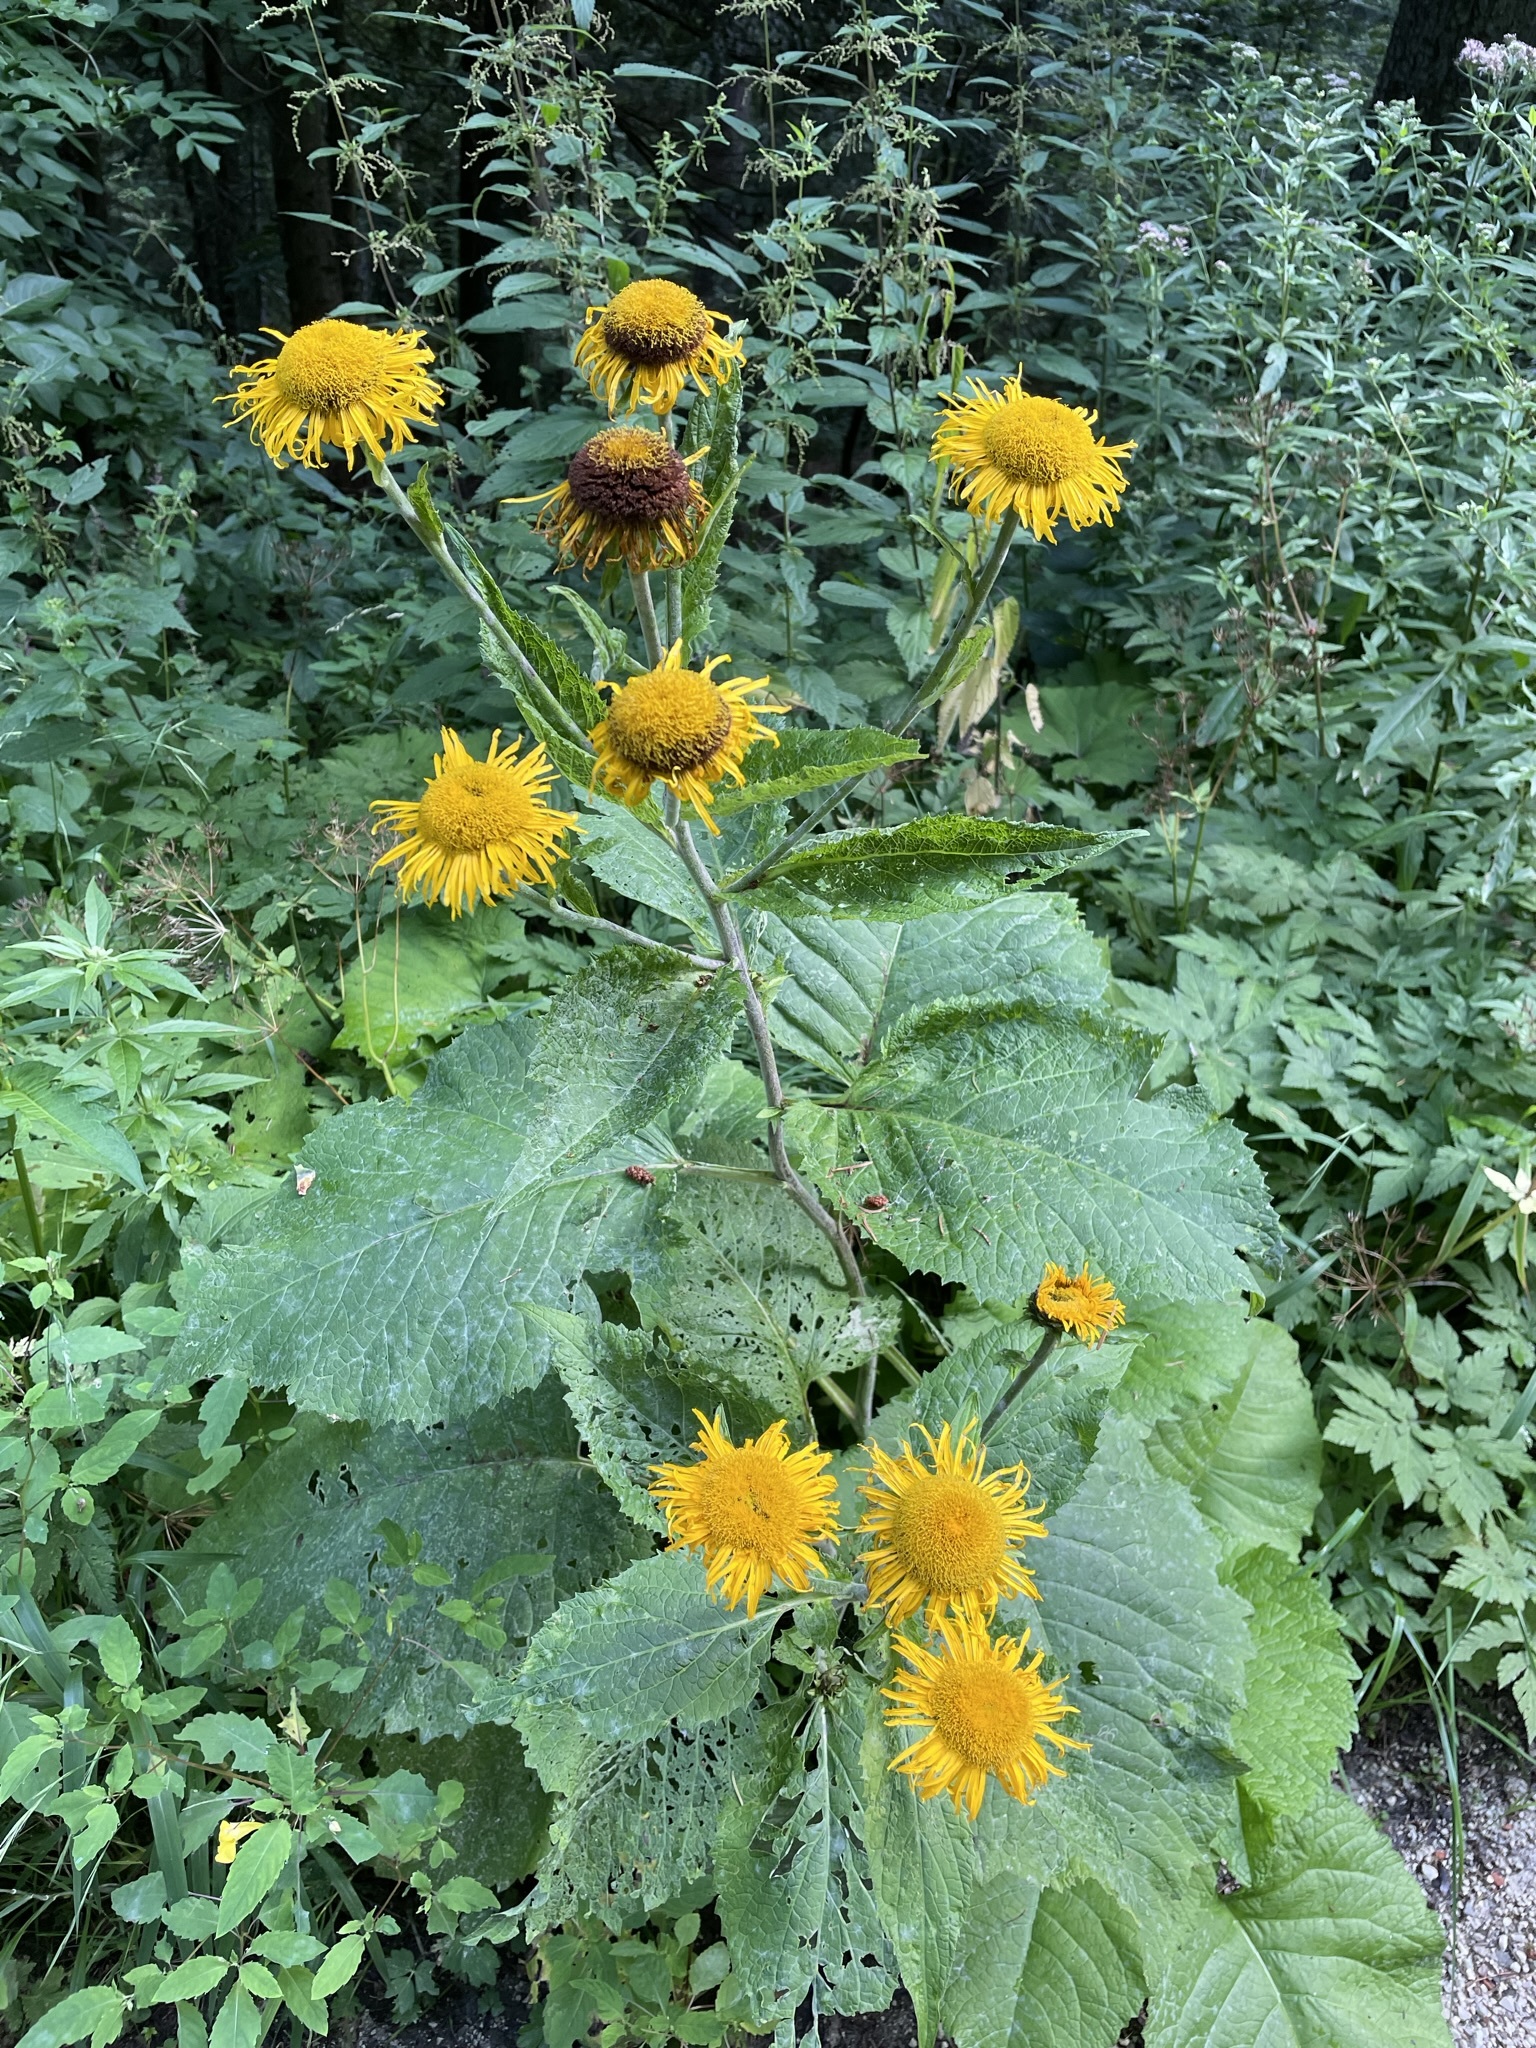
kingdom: Plantae
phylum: Tracheophyta
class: Magnoliopsida
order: Asterales
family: Asteraceae
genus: Telekia
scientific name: Telekia speciosa
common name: Yellow oxeye
